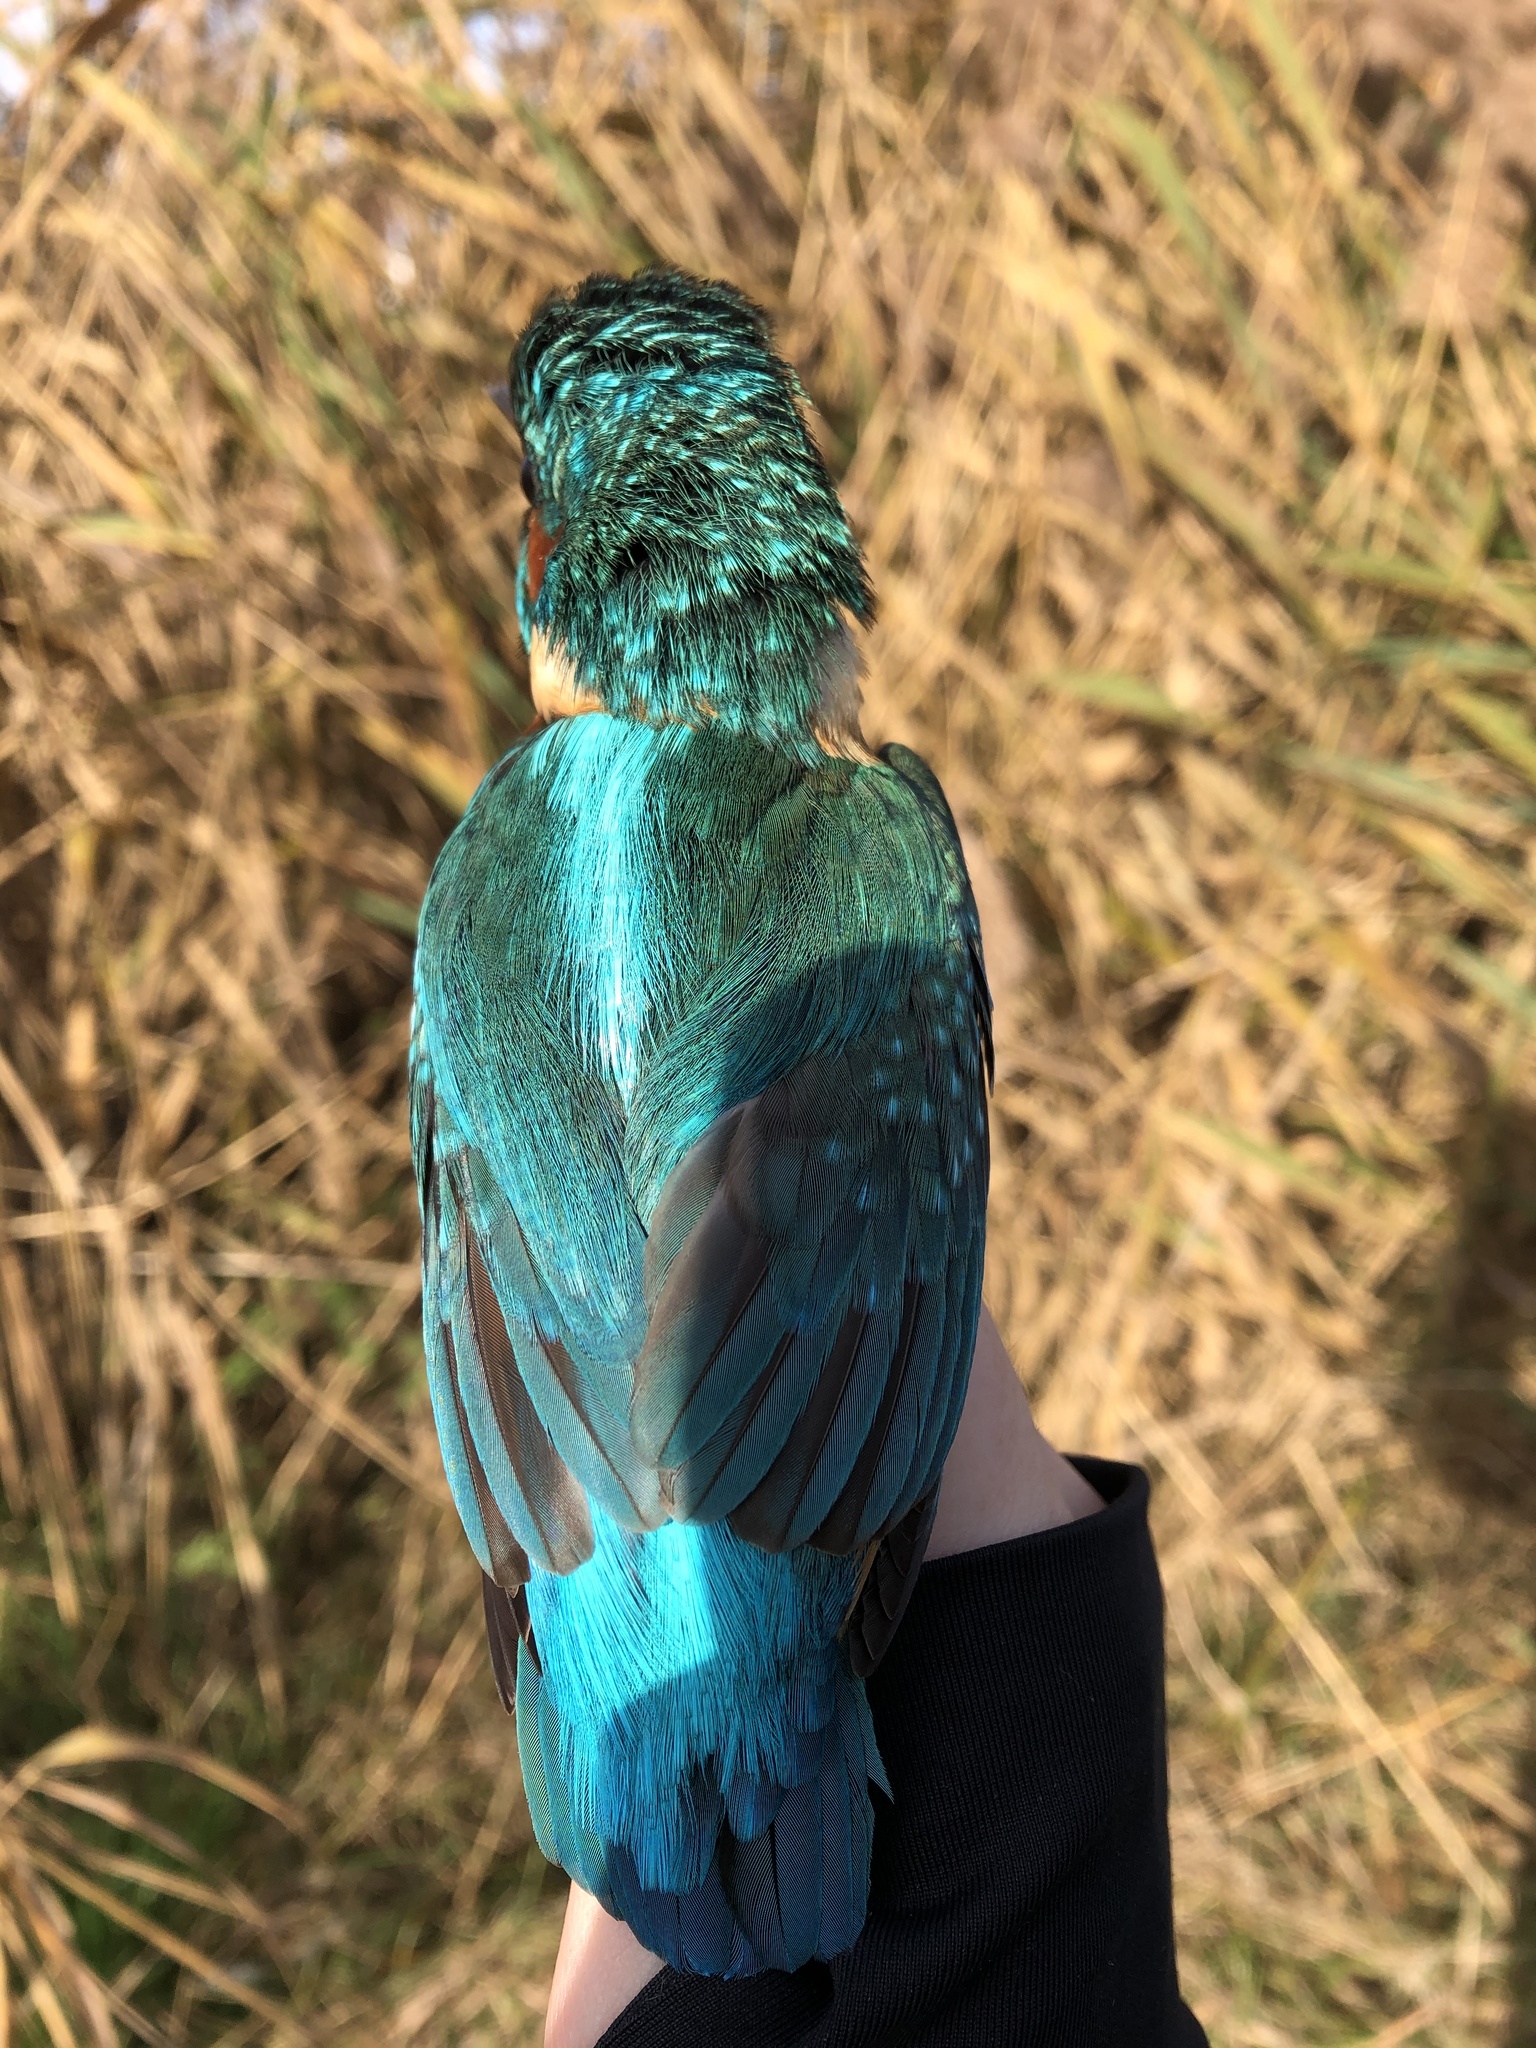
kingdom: Animalia
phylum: Chordata
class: Aves
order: Coraciiformes
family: Alcedinidae
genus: Alcedo
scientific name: Alcedo atthis
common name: Common kingfisher
